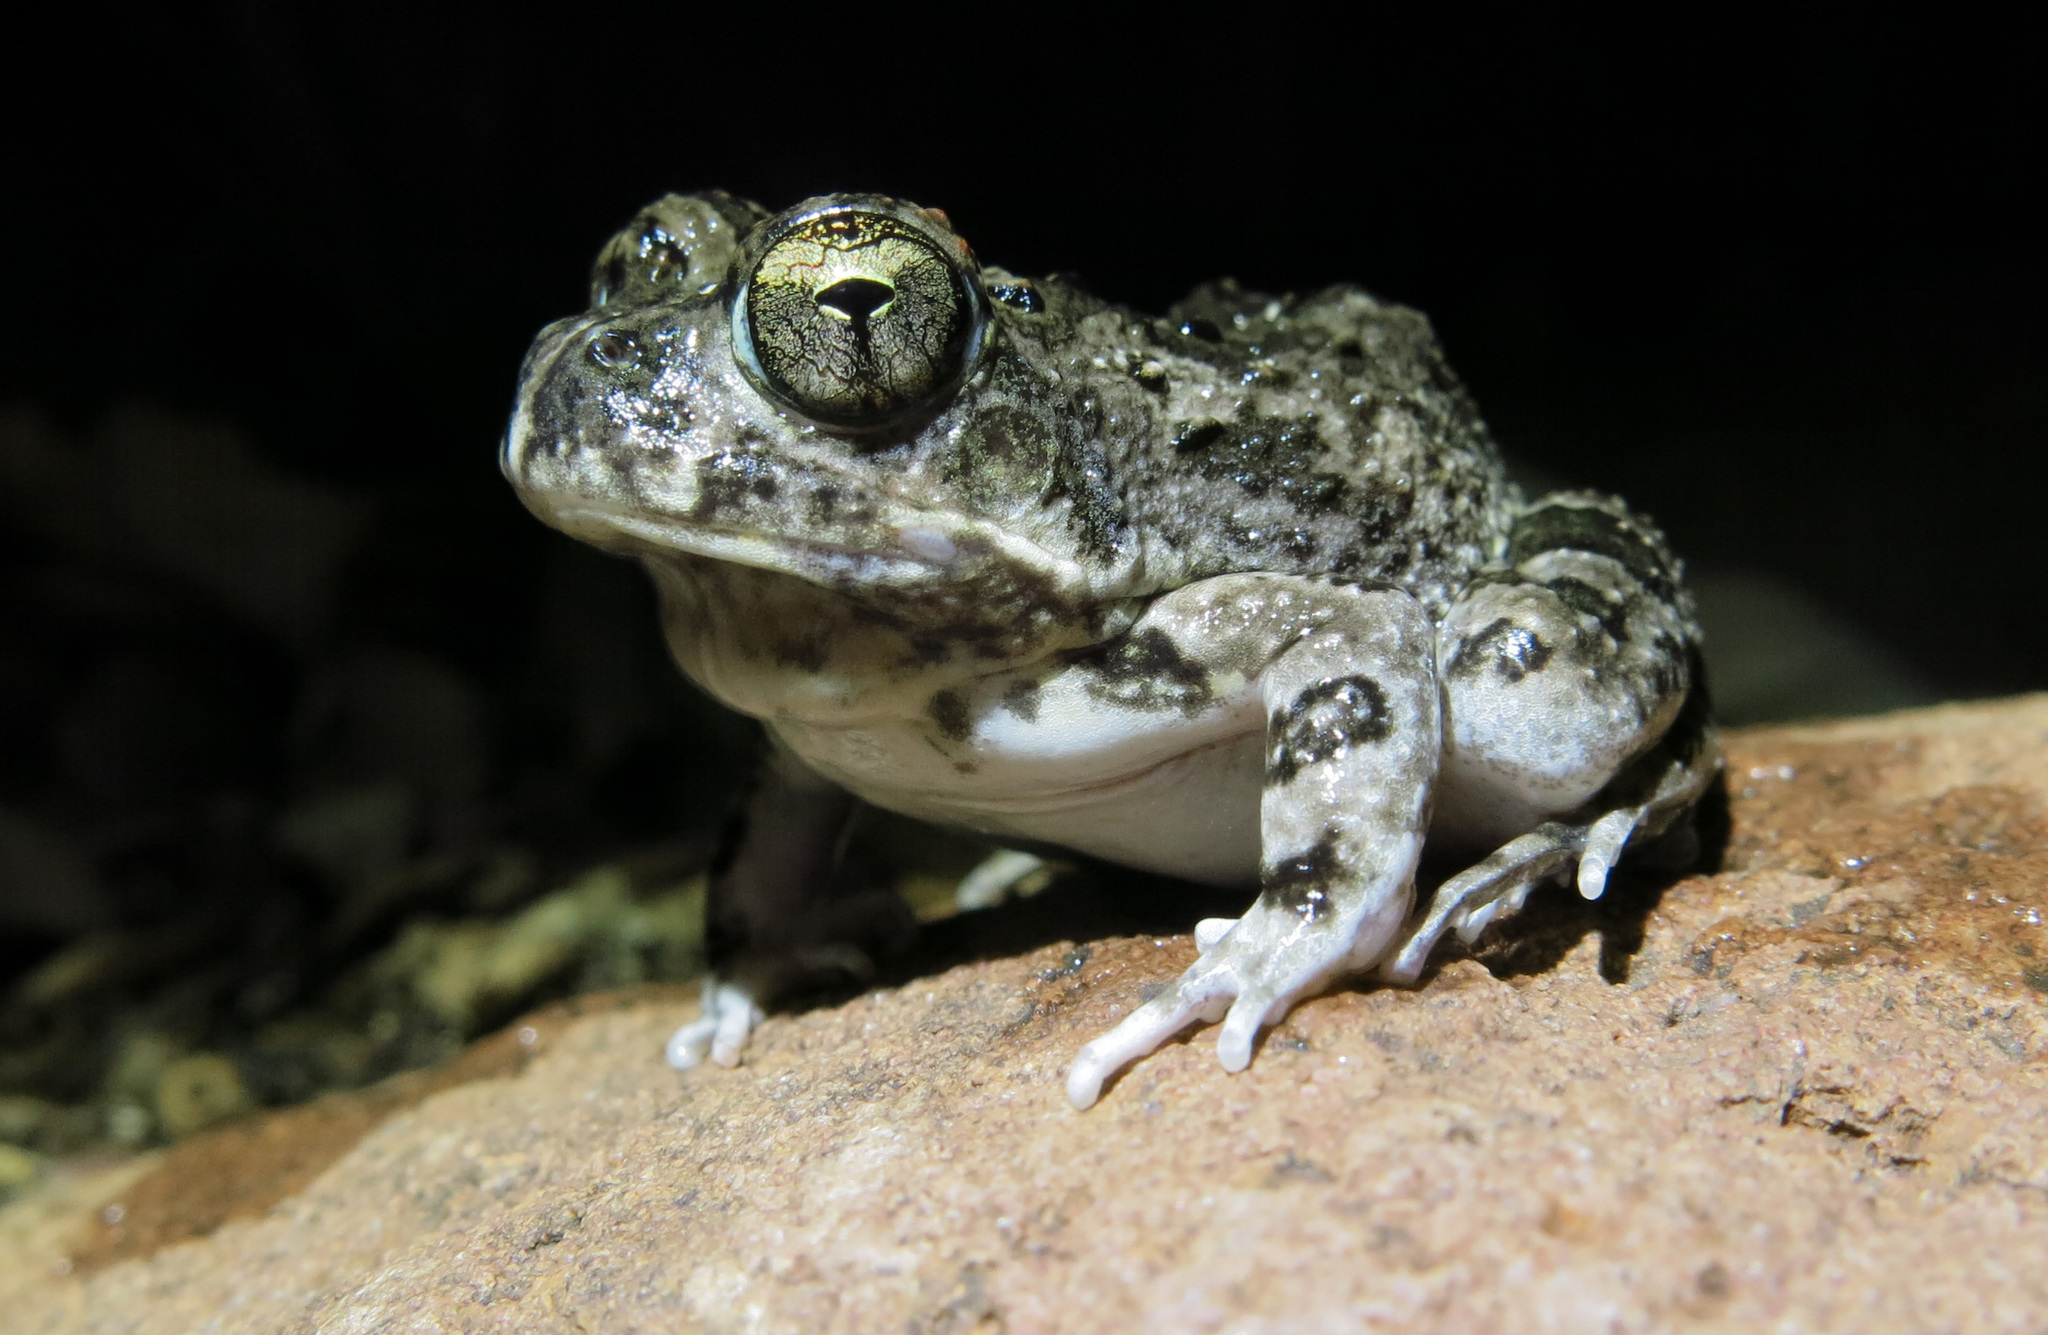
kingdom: Animalia
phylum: Chordata
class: Amphibia
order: Anura
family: Pyxicephalidae
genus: Tomopterna
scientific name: Tomopterna krugerensis
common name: Knocking sand frog
